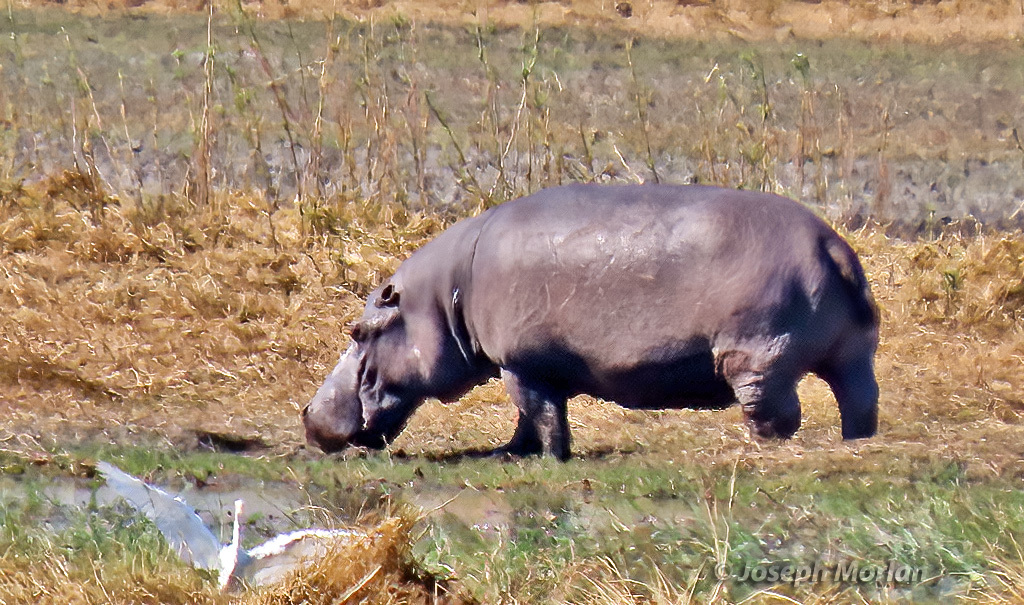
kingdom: Animalia
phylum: Chordata
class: Mammalia
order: Artiodactyla
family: Hippopotamidae
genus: Hippopotamus
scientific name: Hippopotamus amphibius
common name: Common hippopotamus
